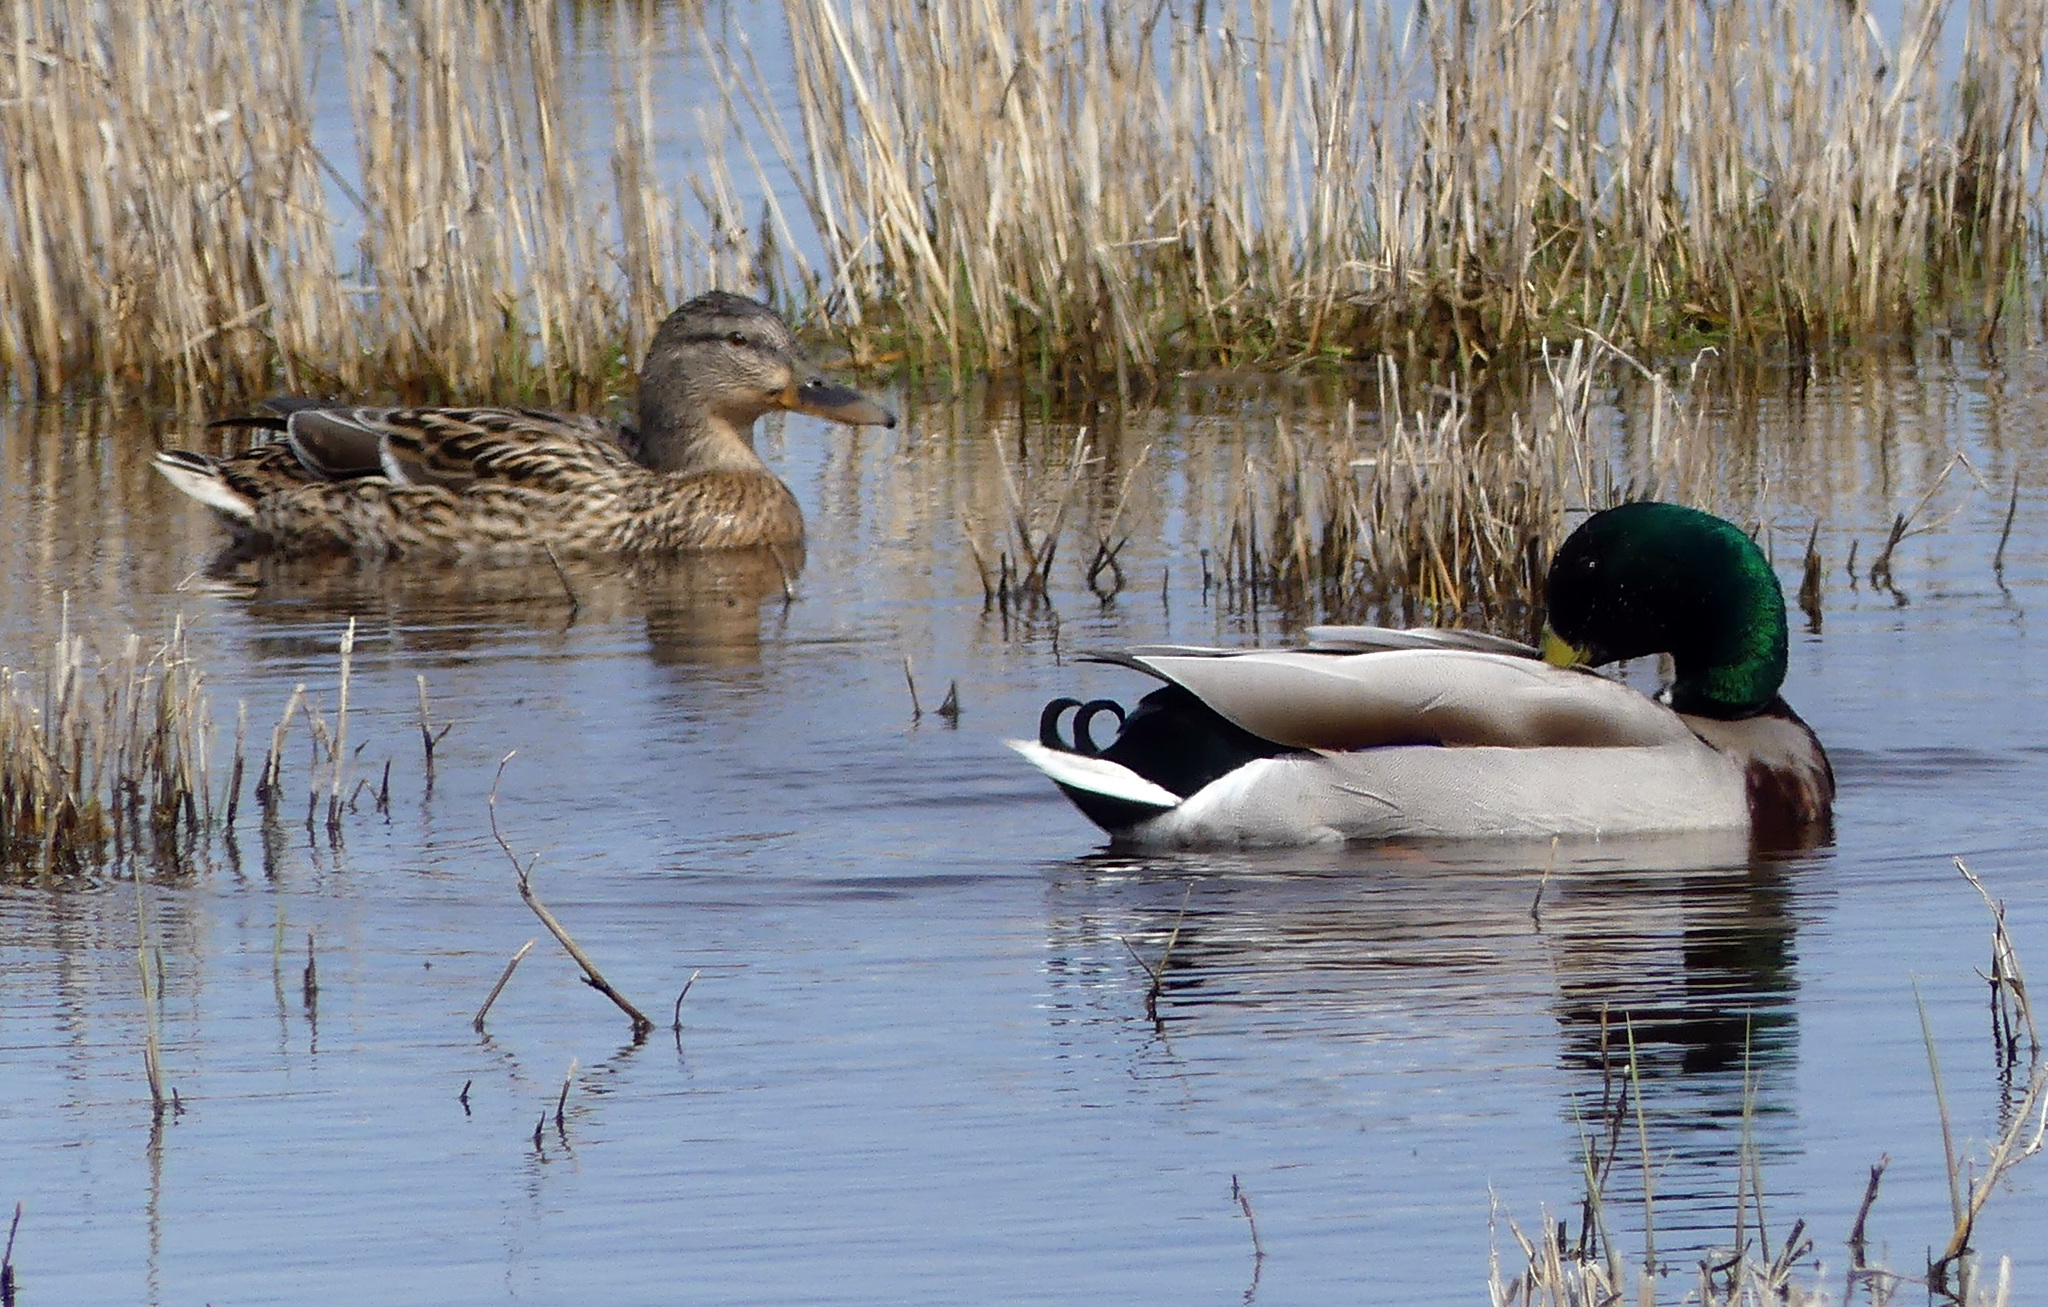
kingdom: Animalia
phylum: Chordata
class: Aves
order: Anseriformes
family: Anatidae
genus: Anas
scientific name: Anas platyrhynchos
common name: Mallard
